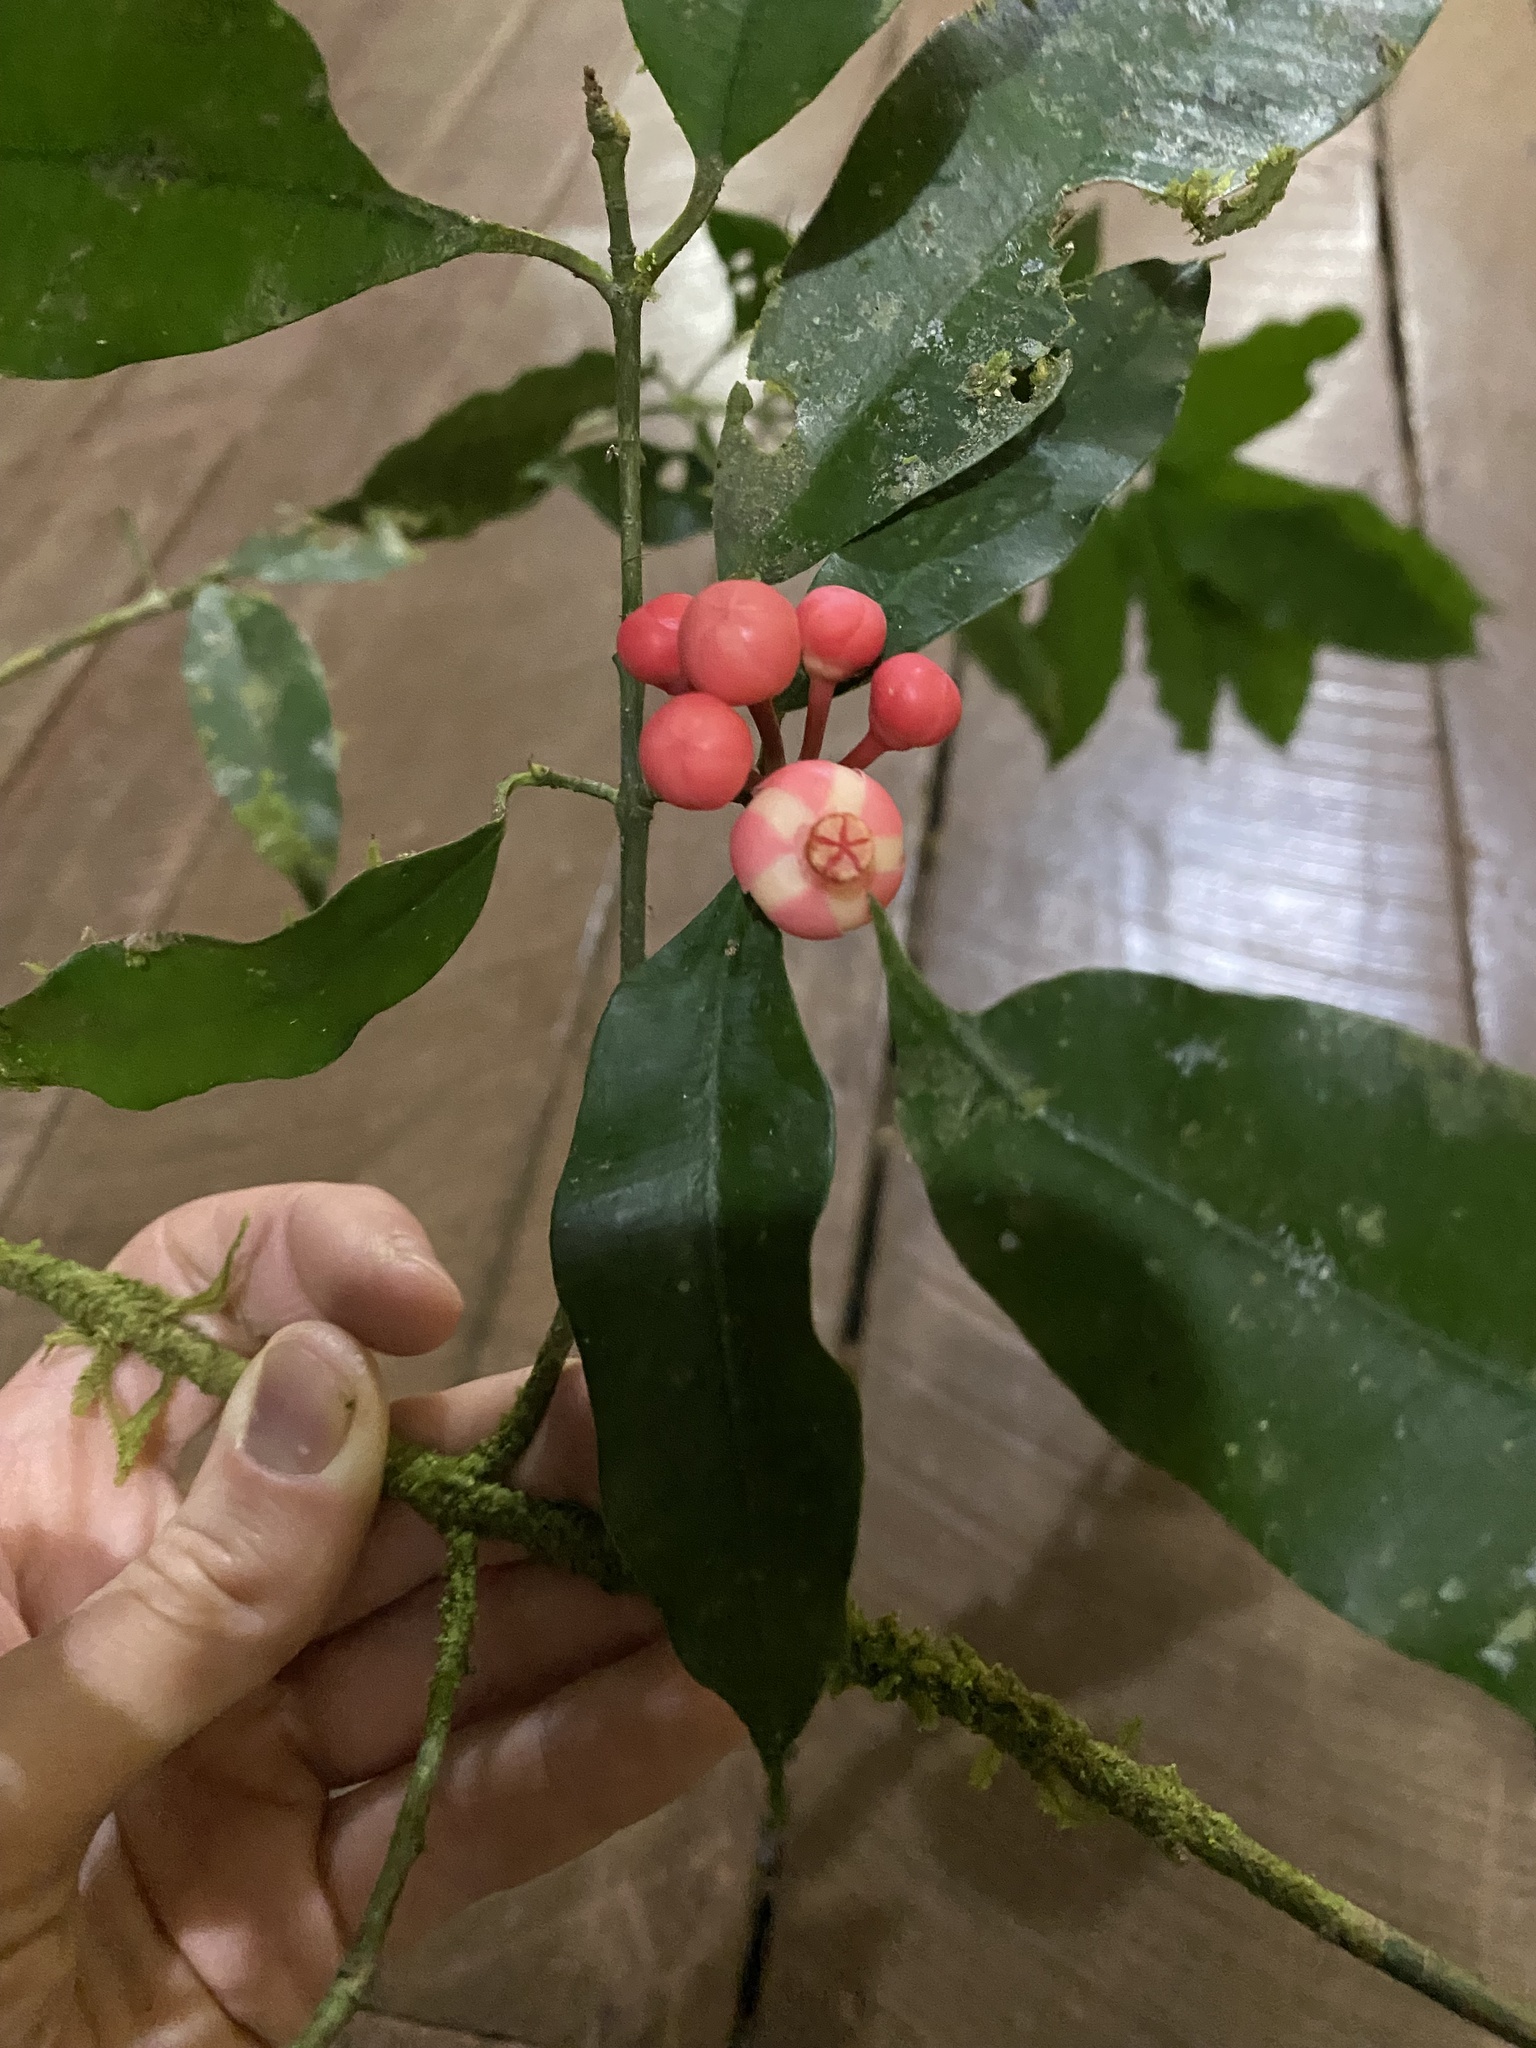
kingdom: Plantae
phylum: Tracheophyta
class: Magnoliopsida
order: Malpighiales
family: Clusiaceae
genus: Symphonia
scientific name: Symphonia globulifera
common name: Boarwood
